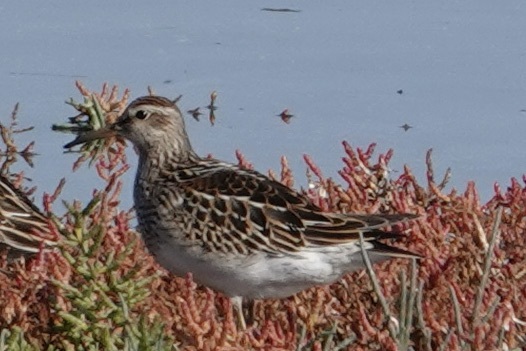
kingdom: Animalia
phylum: Chordata
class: Aves
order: Charadriiformes
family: Scolopacidae
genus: Calidris
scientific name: Calidris melanotos
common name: Pectoral sandpiper
